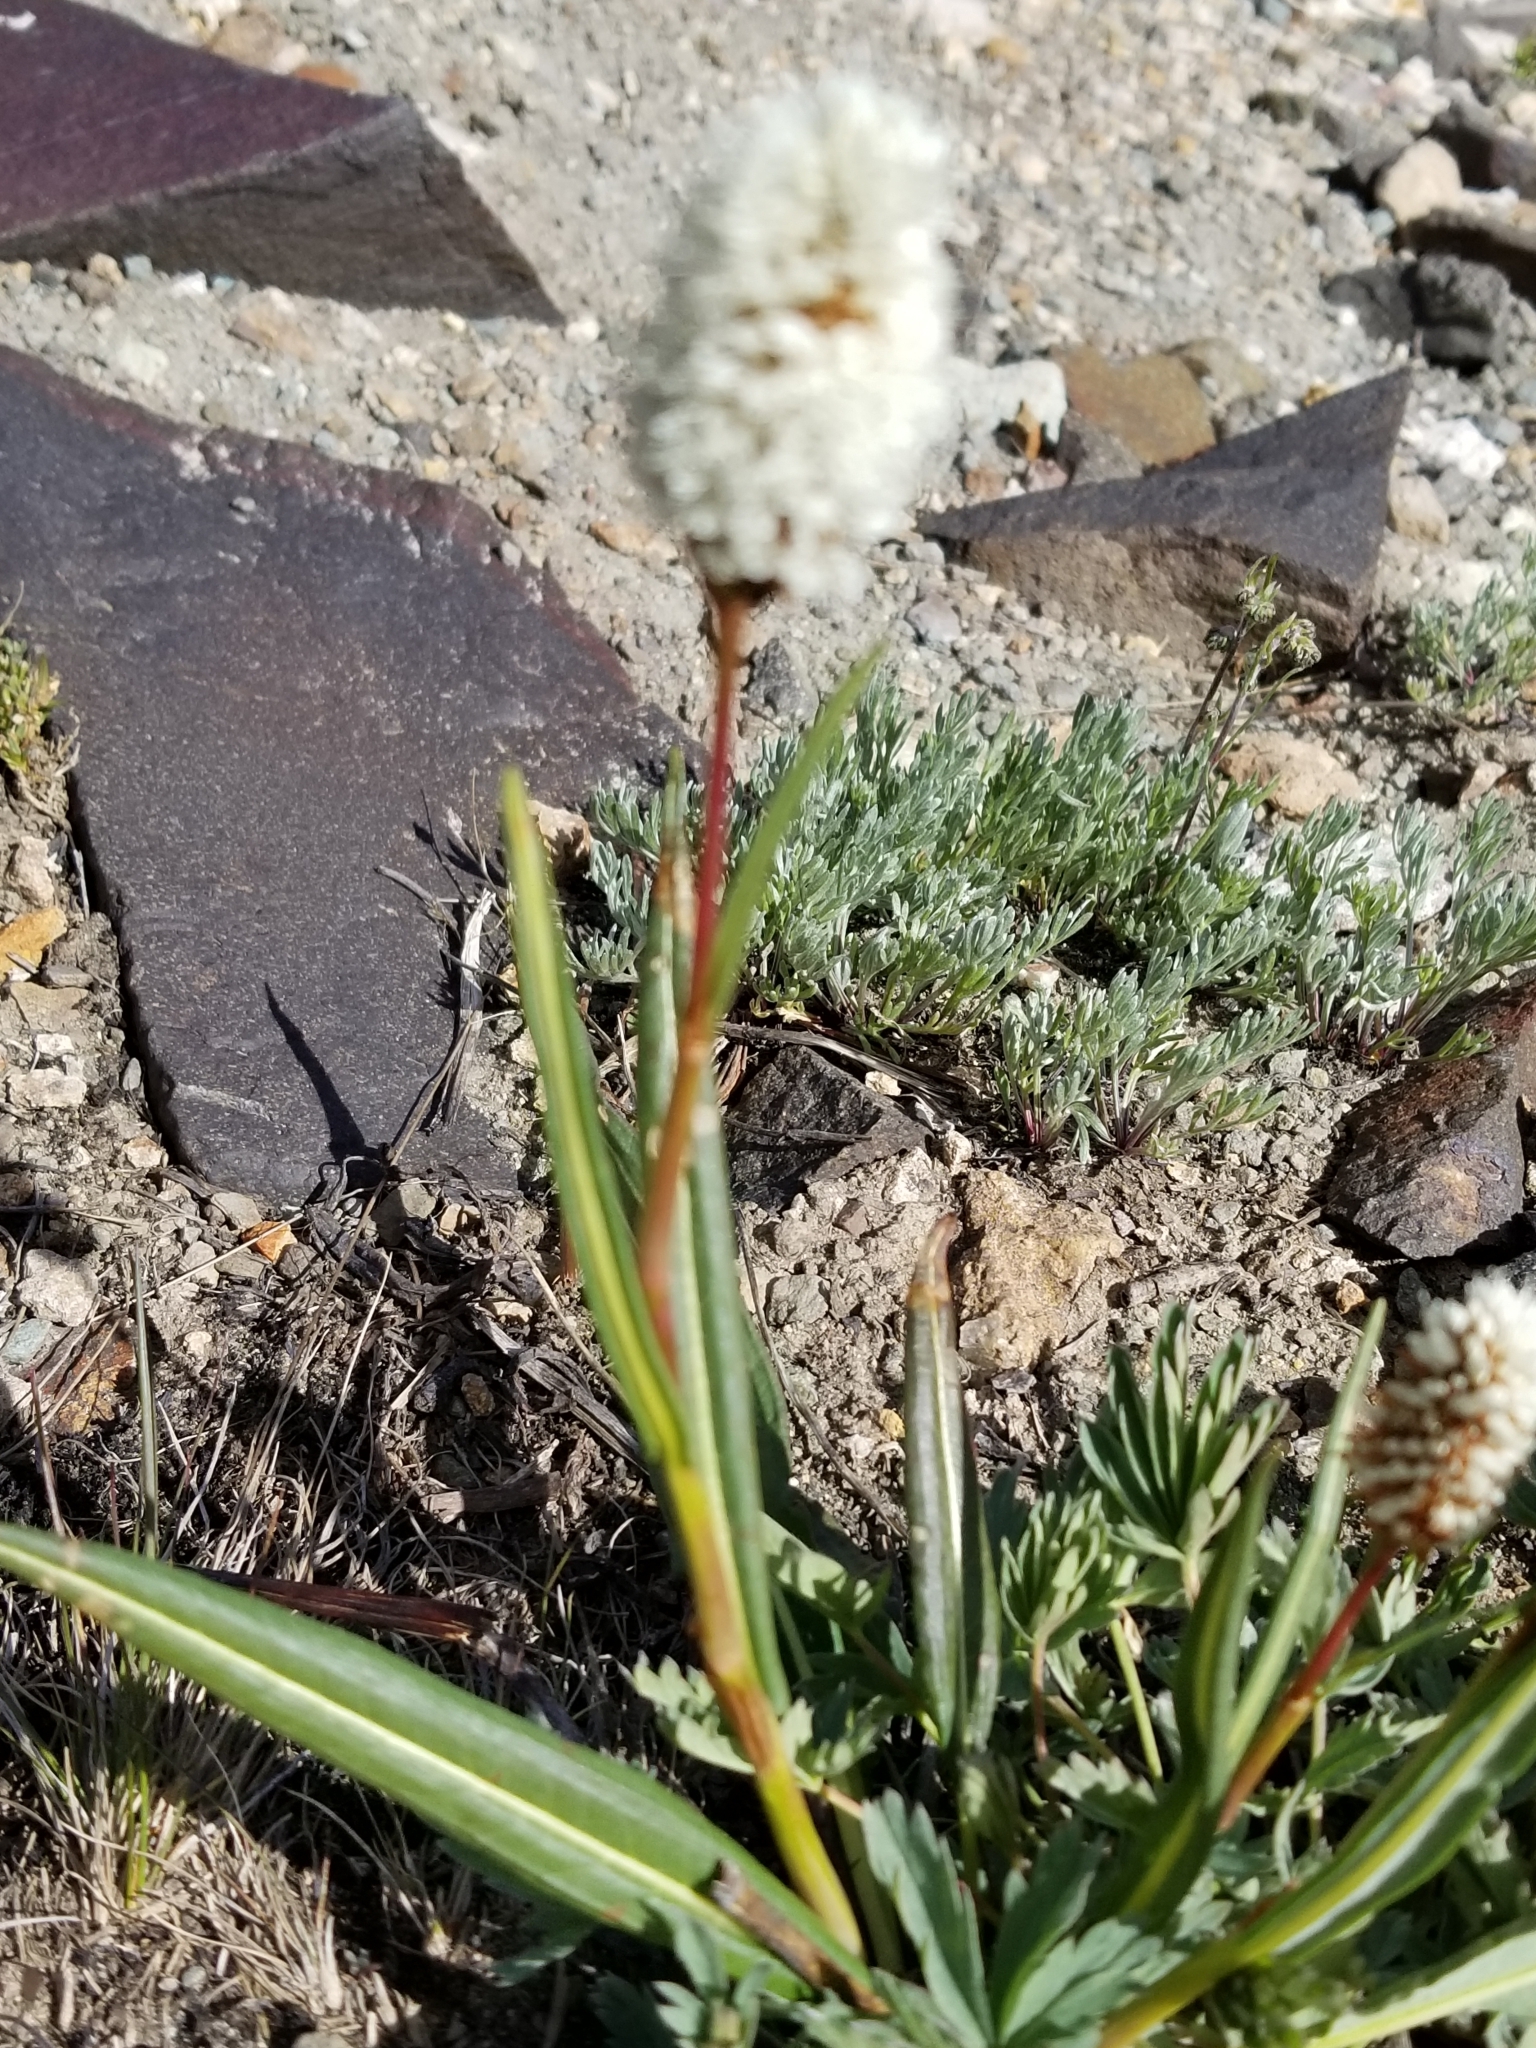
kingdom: Plantae
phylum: Tracheophyta
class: Magnoliopsida
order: Caryophyllales
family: Polygonaceae
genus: Bistorta
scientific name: Bistorta bistortoides
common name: American bistort
